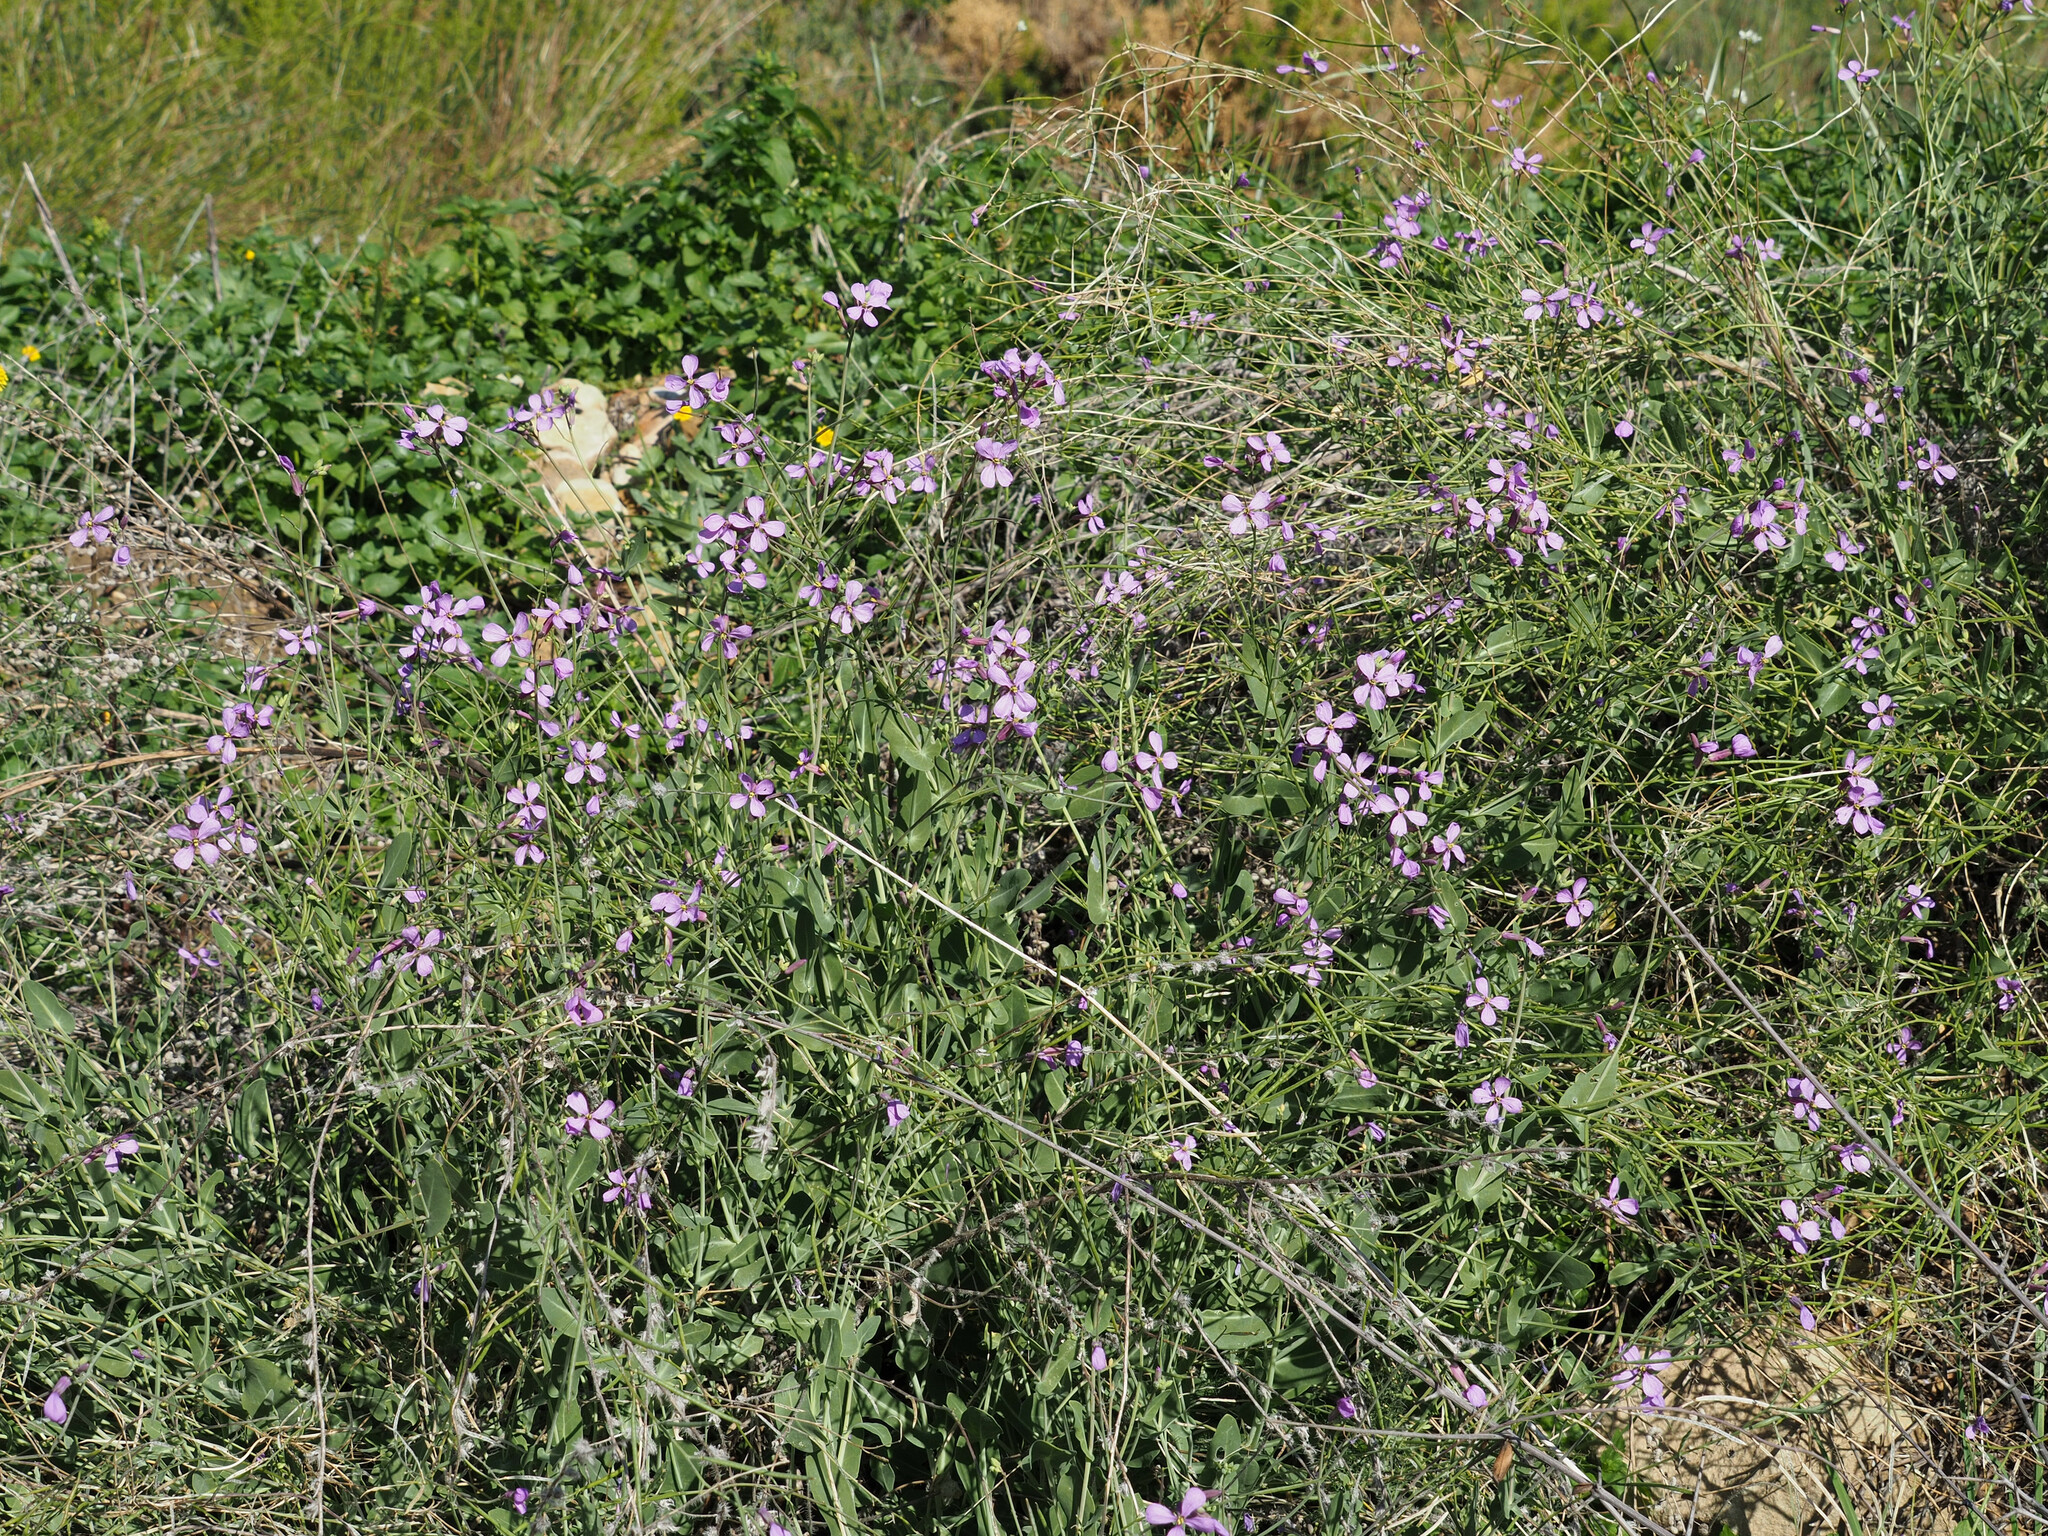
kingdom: Plantae
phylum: Tracheophyta
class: Magnoliopsida
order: Brassicales
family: Brassicaceae
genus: Moricandia
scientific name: Moricandia arvensis
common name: Purple mistress
